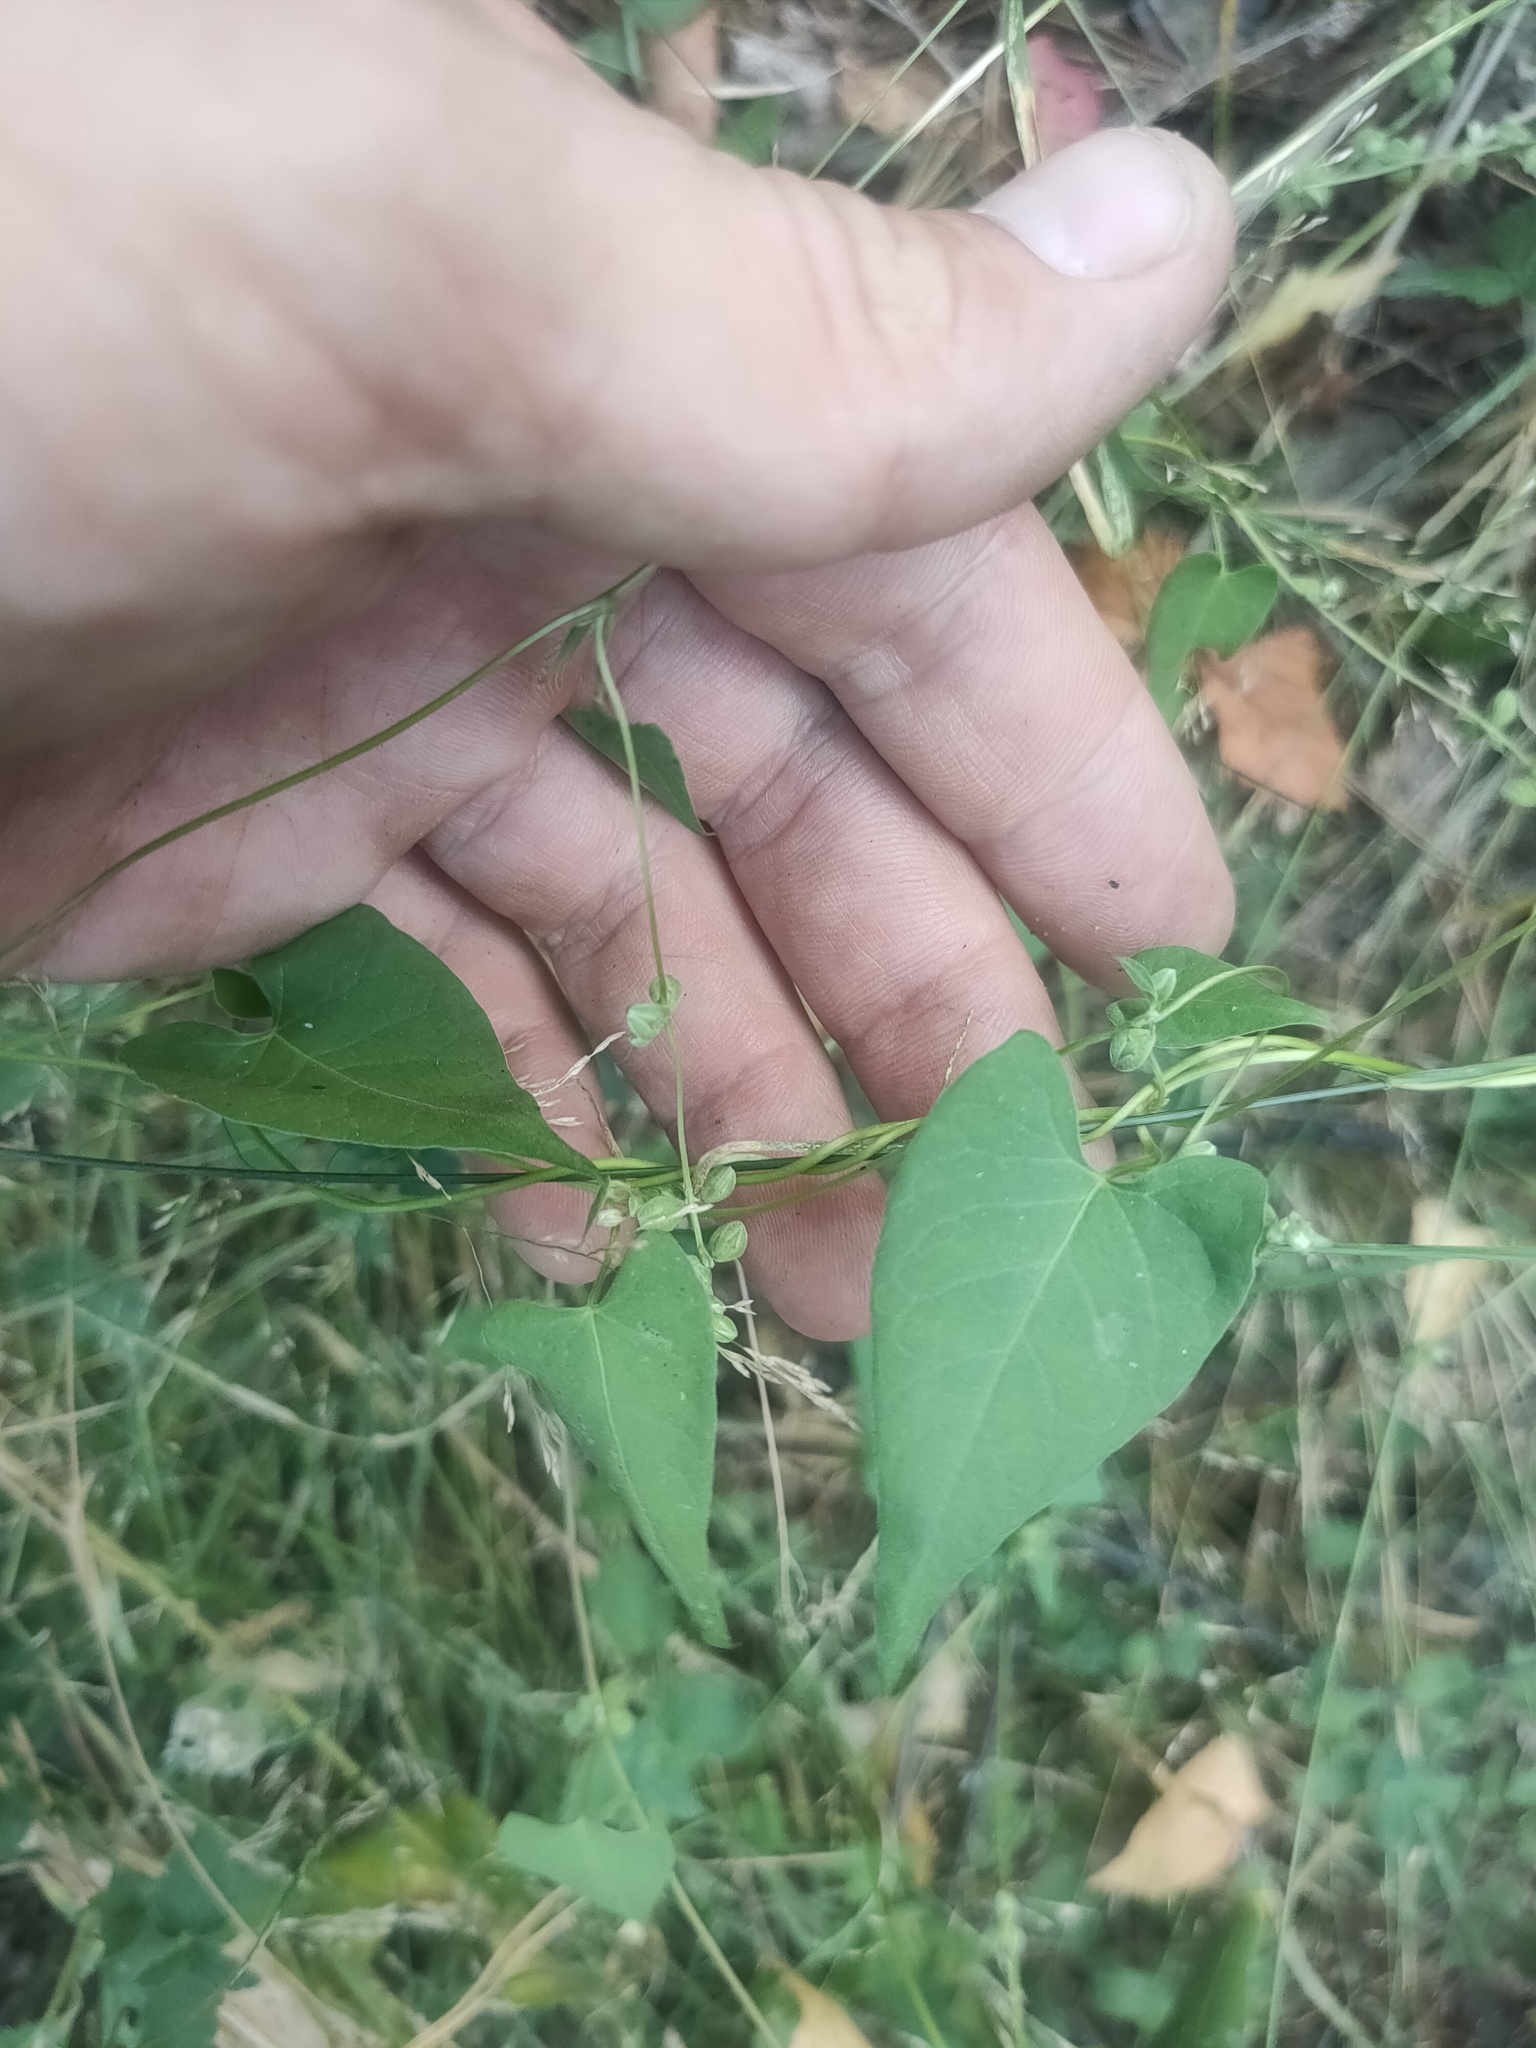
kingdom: Plantae
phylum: Tracheophyta
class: Magnoliopsida
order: Caryophyllales
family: Polygonaceae
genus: Fallopia
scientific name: Fallopia convolvulus
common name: Black bindweed
